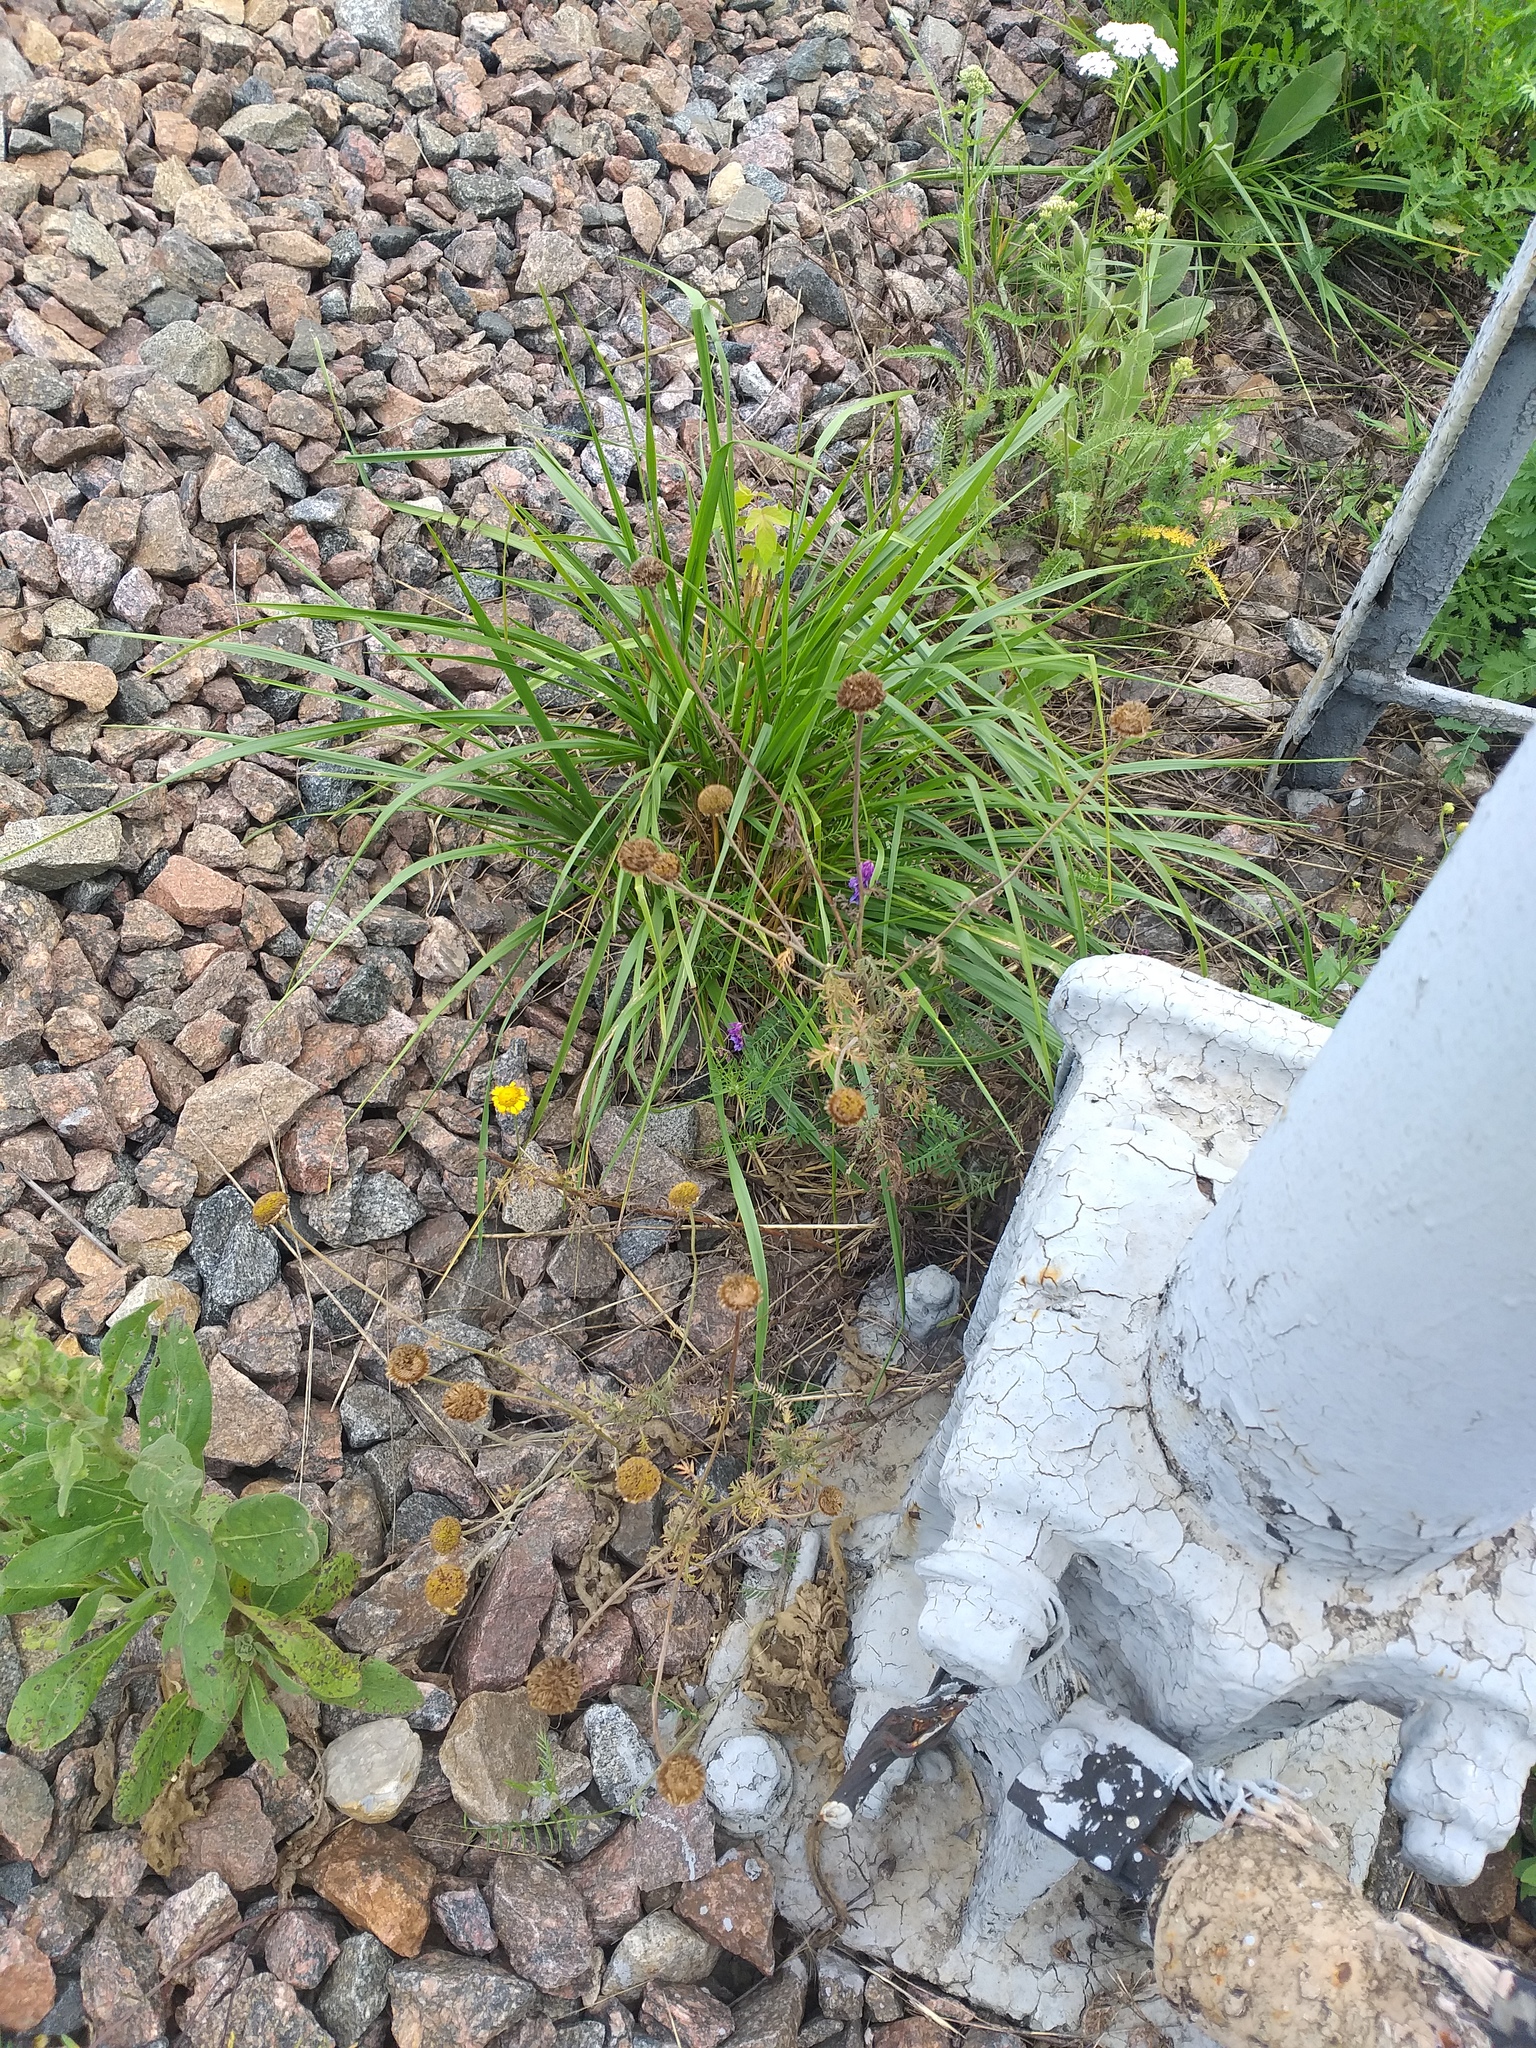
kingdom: Plantae
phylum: Tracheophyta
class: Magnoliopsida
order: Asterales
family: Asteraceae
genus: Cota
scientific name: Cota tinctoria
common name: Golden chamomile
